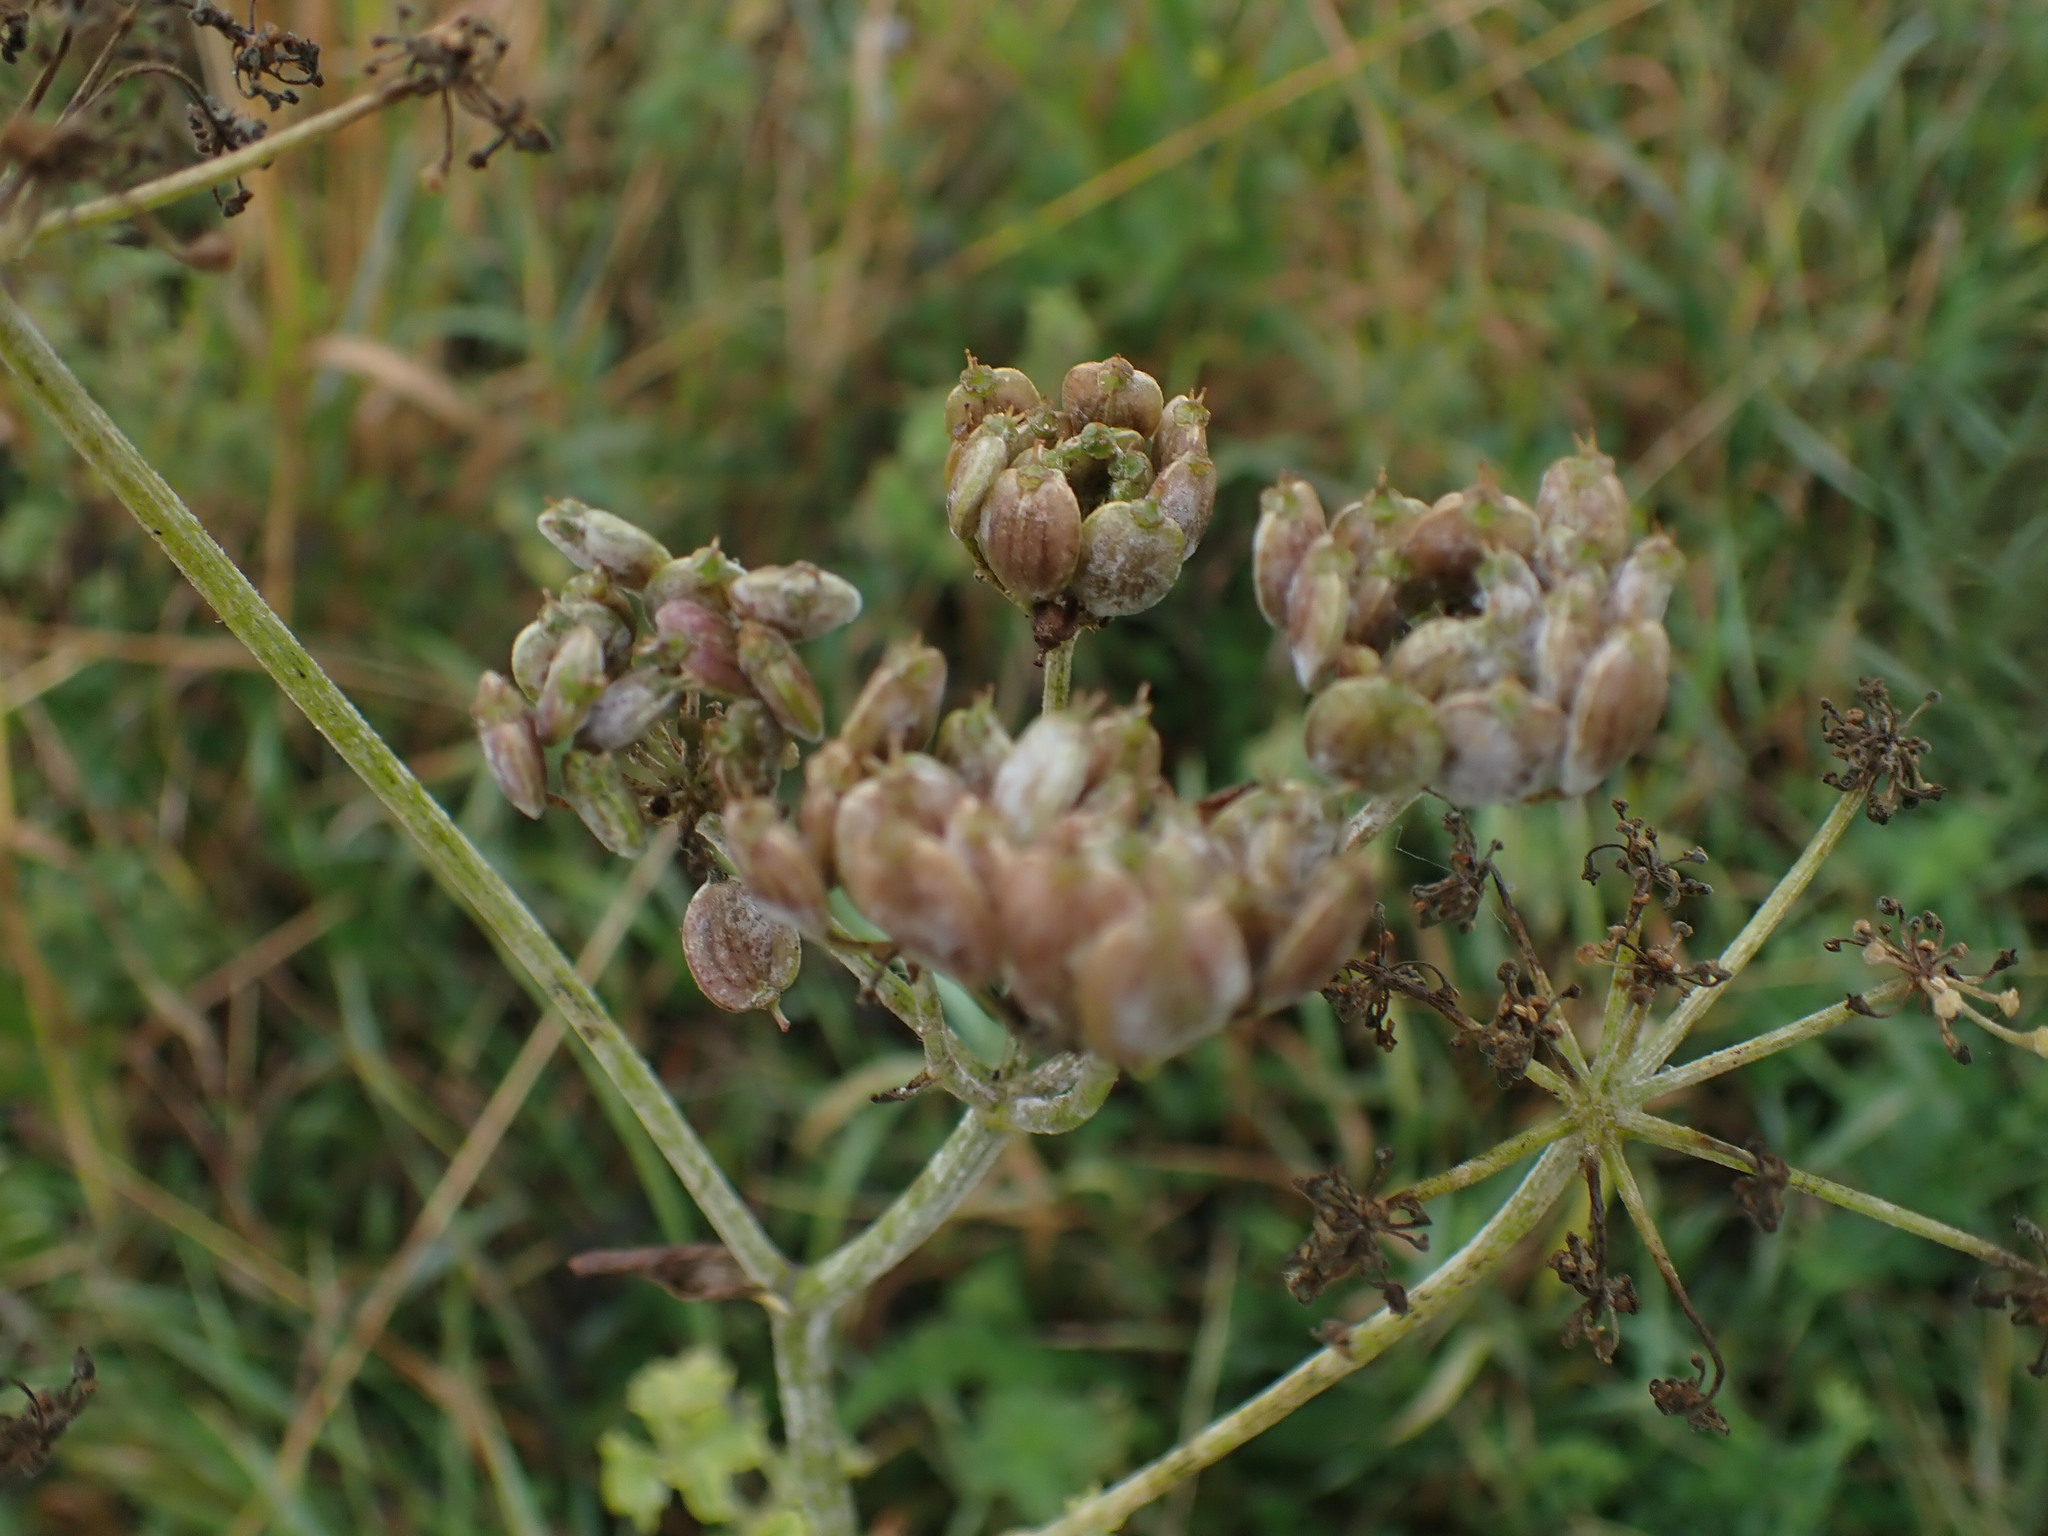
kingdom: Plantae
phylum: Tracheophyta
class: Magnoliopsida
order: Apiales
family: Apiaceae
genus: Heracleum
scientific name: Heracleum sphondylium
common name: Hogweed
